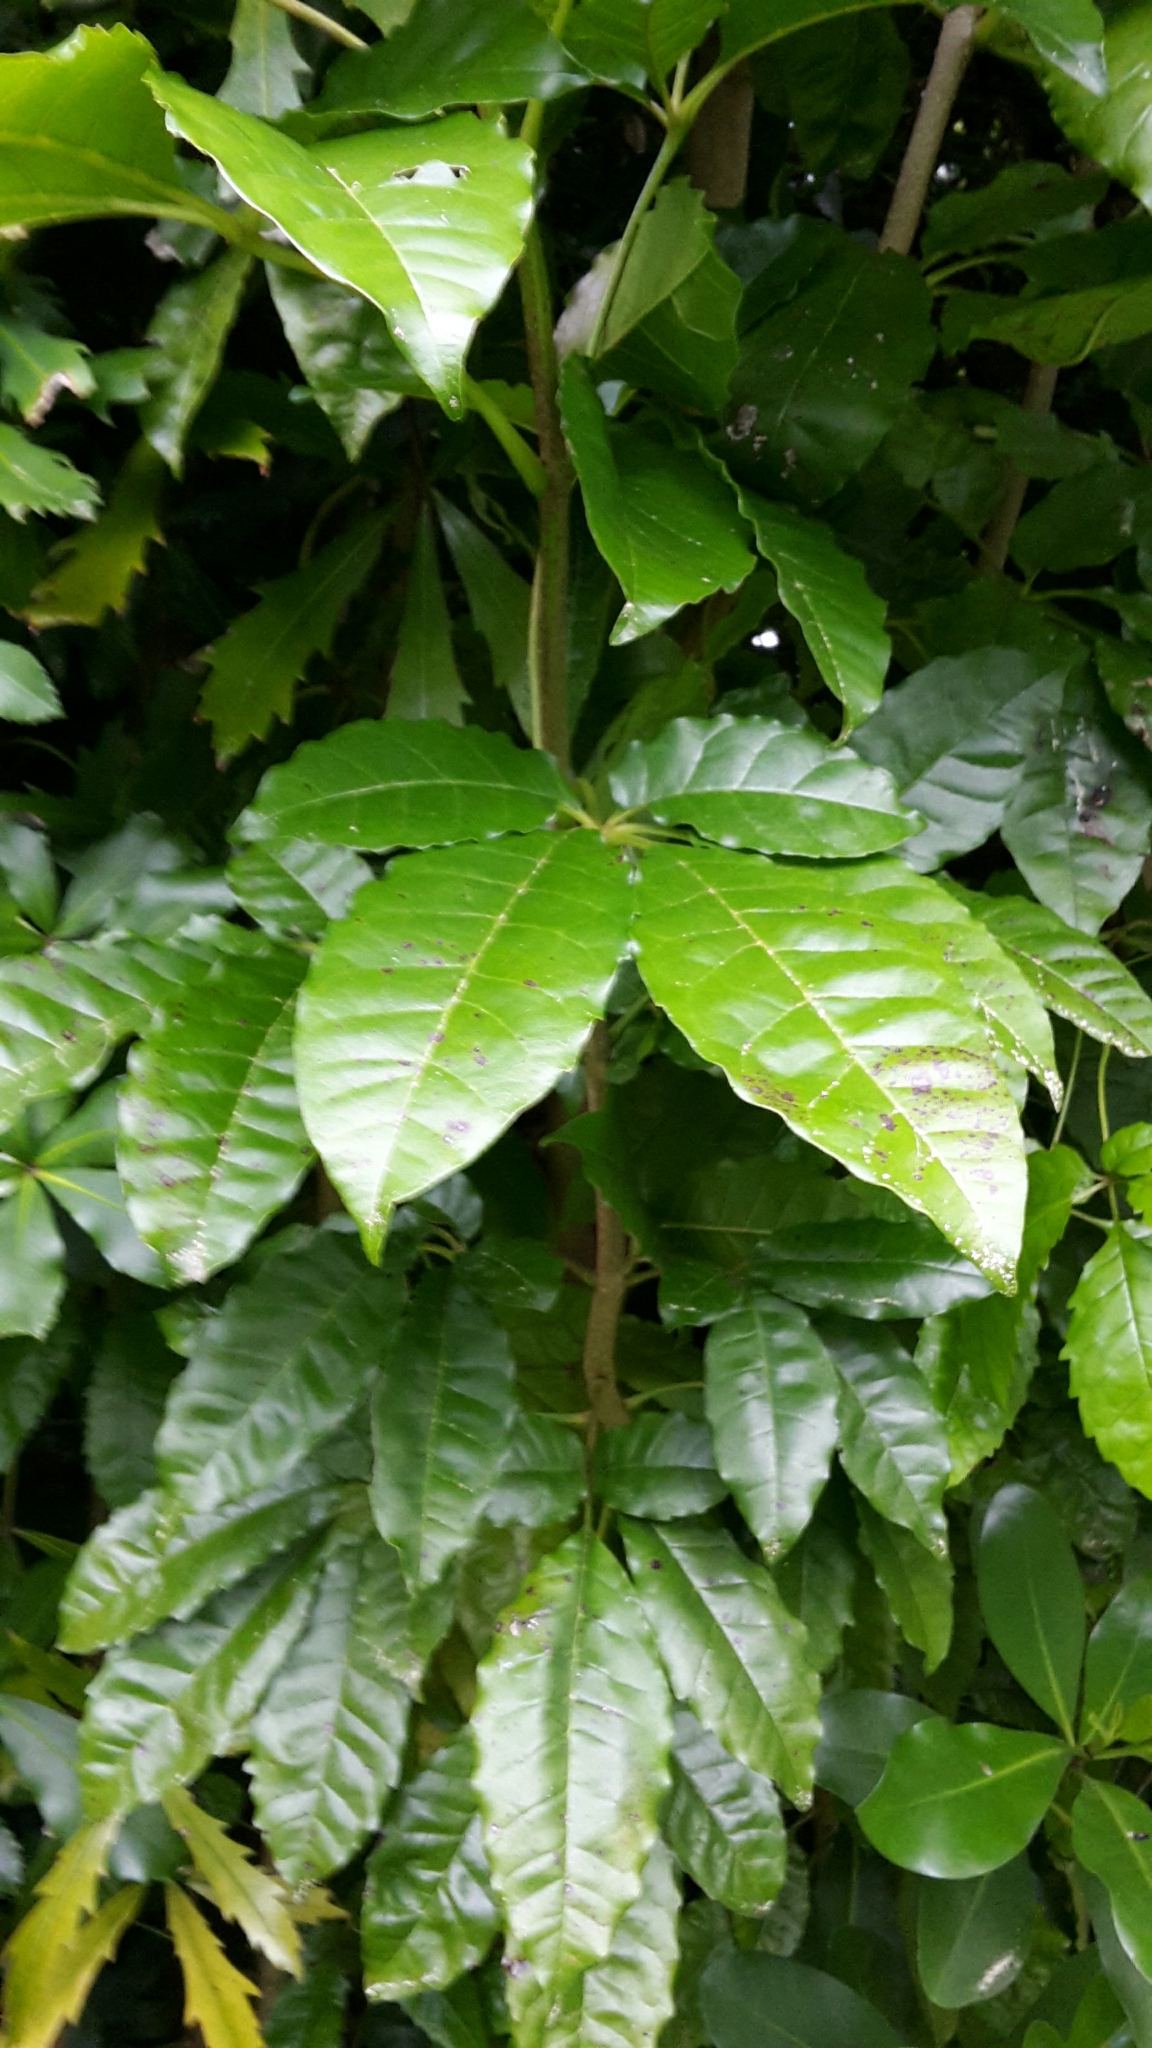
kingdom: Plantae
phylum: Tracheophyta
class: Magnoliopsida
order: Lamiales
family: Lamiaceae
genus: Vitex
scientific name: Vitex lucens
